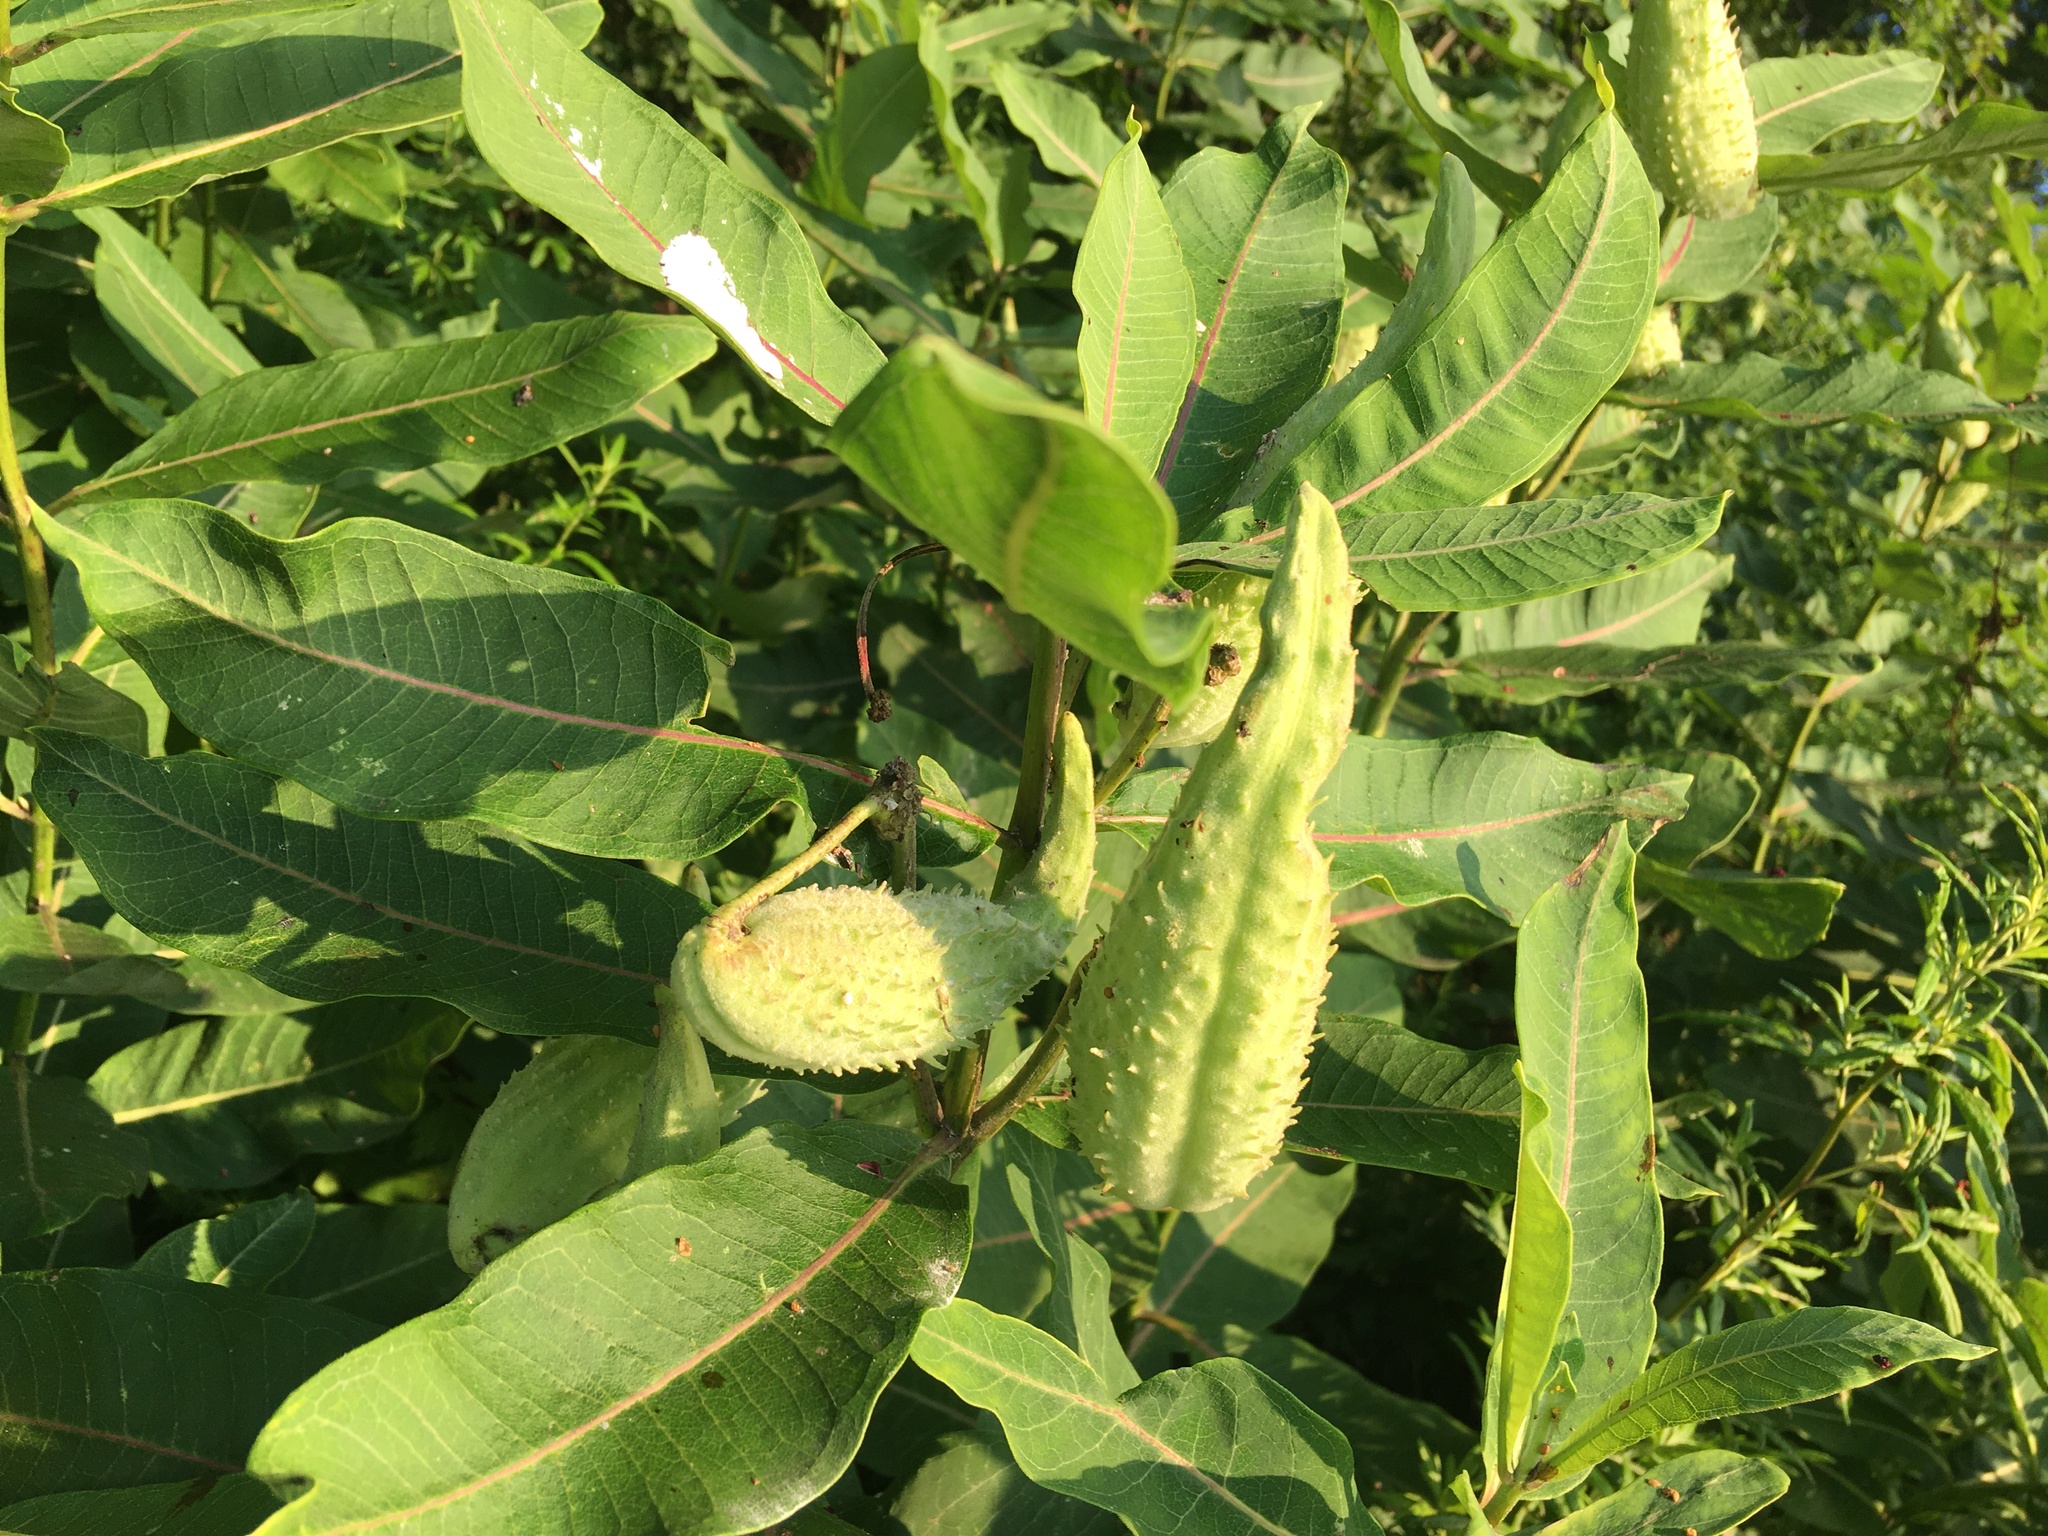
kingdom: Plantae
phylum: Tracheophyta
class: Magnoliopsida
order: Gentianales
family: Apocynaceae
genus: Asclepias
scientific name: Asclepias syriaca
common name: Common milkweed
